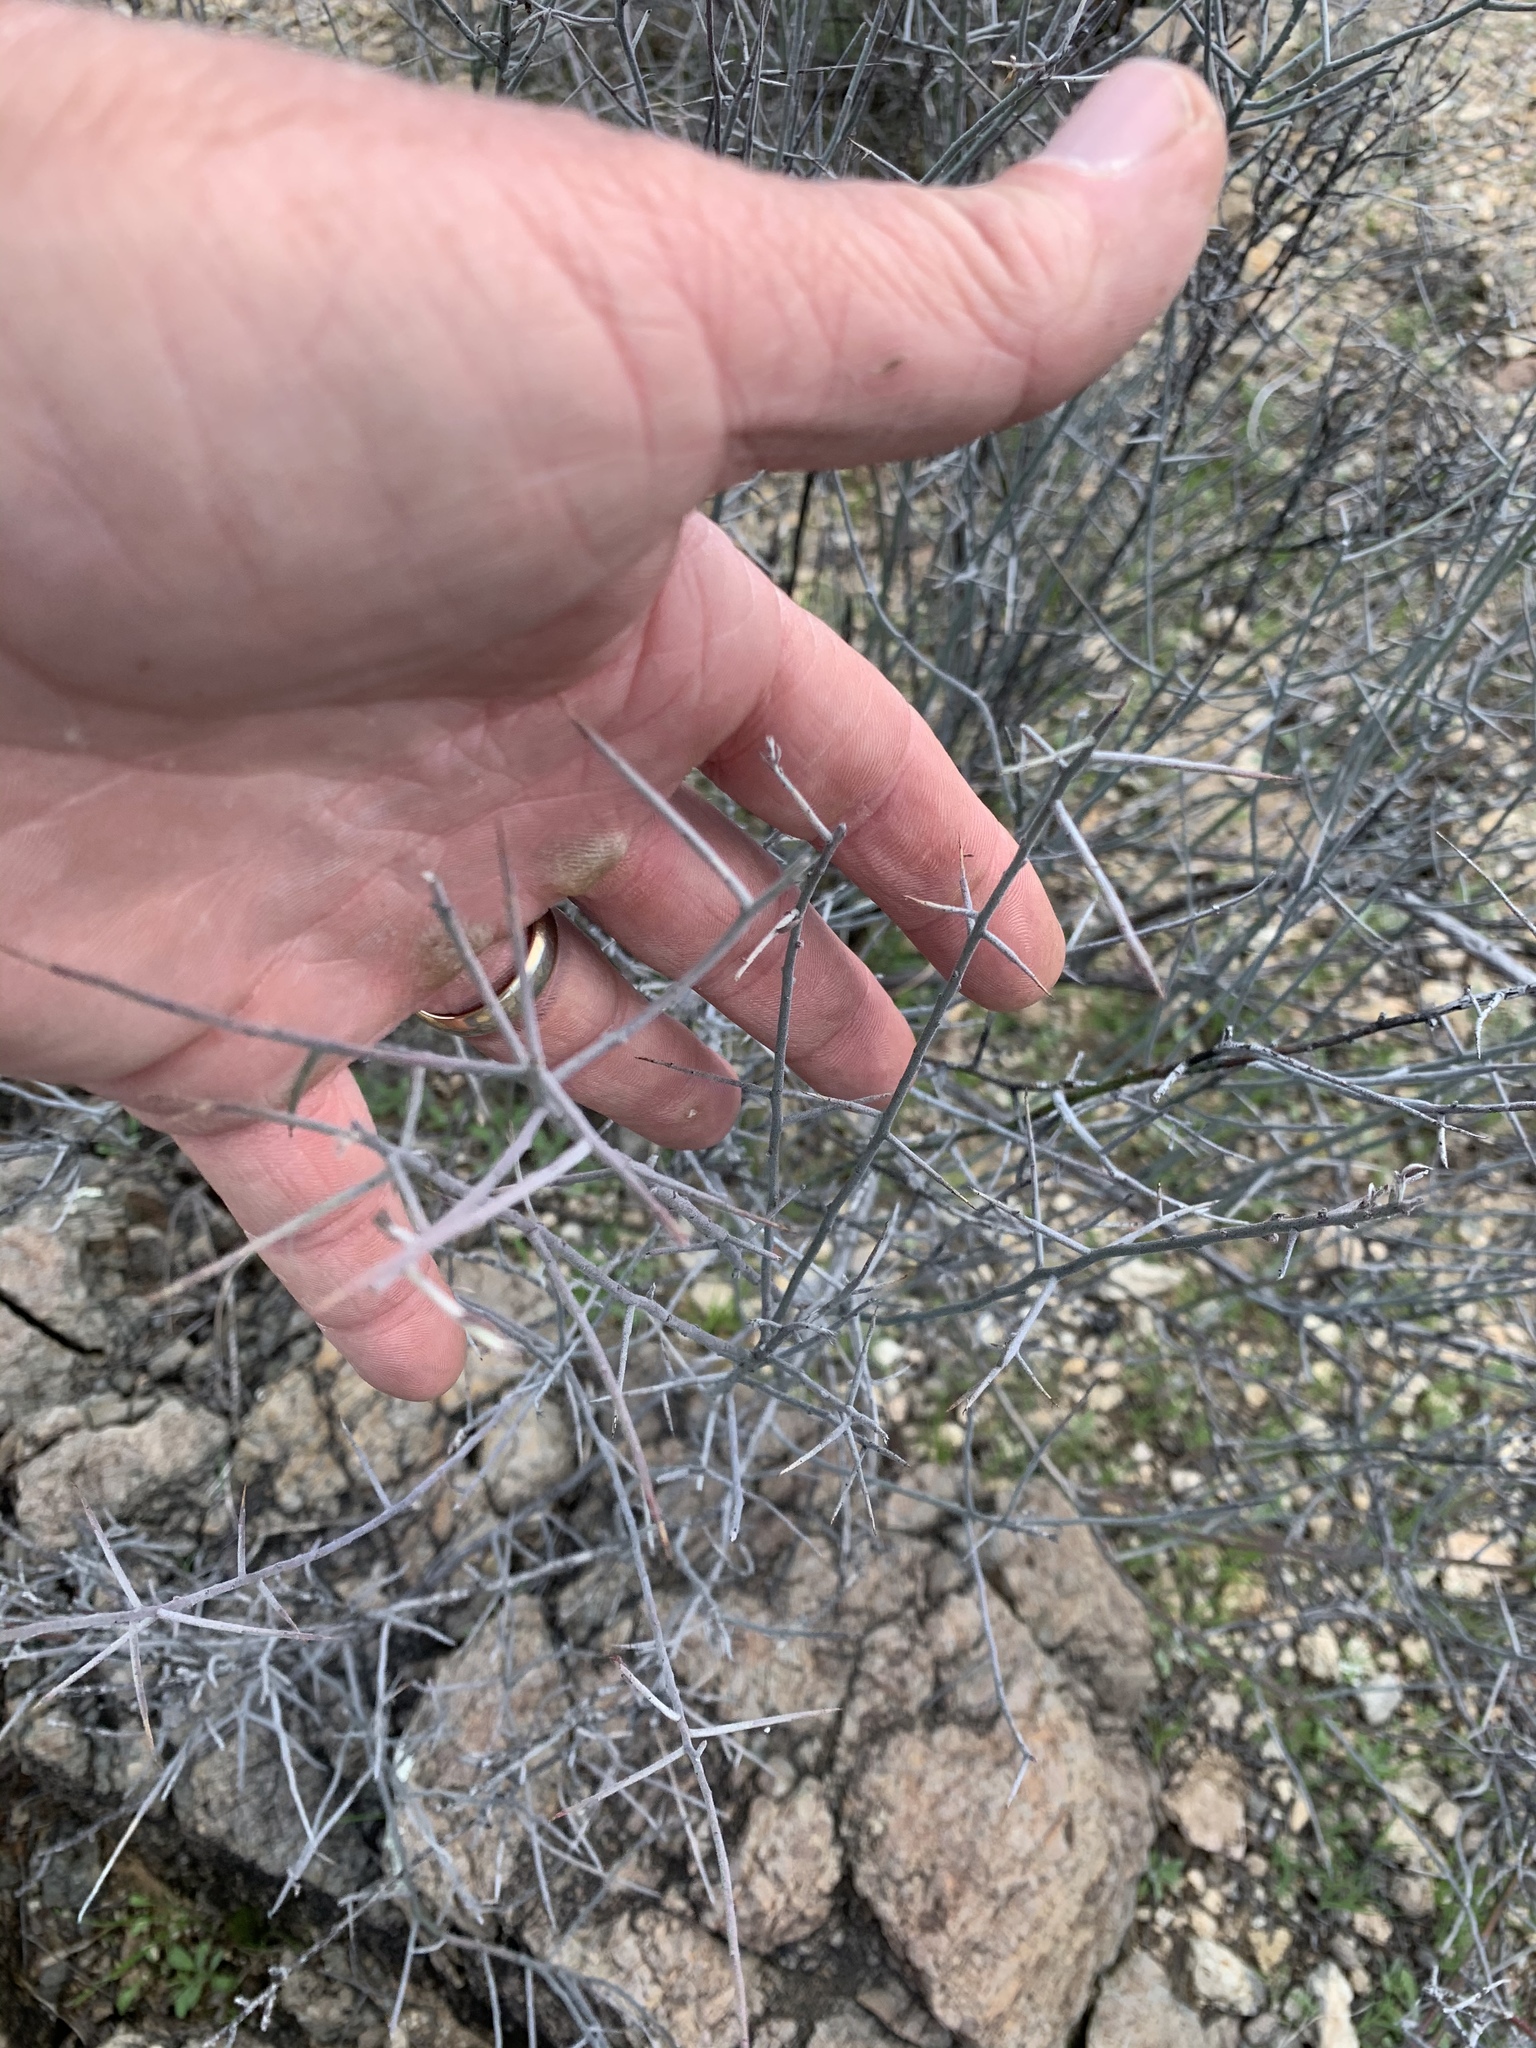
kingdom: Plantae
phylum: Tracheophyta
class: Magnoliopsida
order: Zygophyllales
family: Krameriaceae
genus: Krameria
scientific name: Krameria bicolor
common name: White ratany
